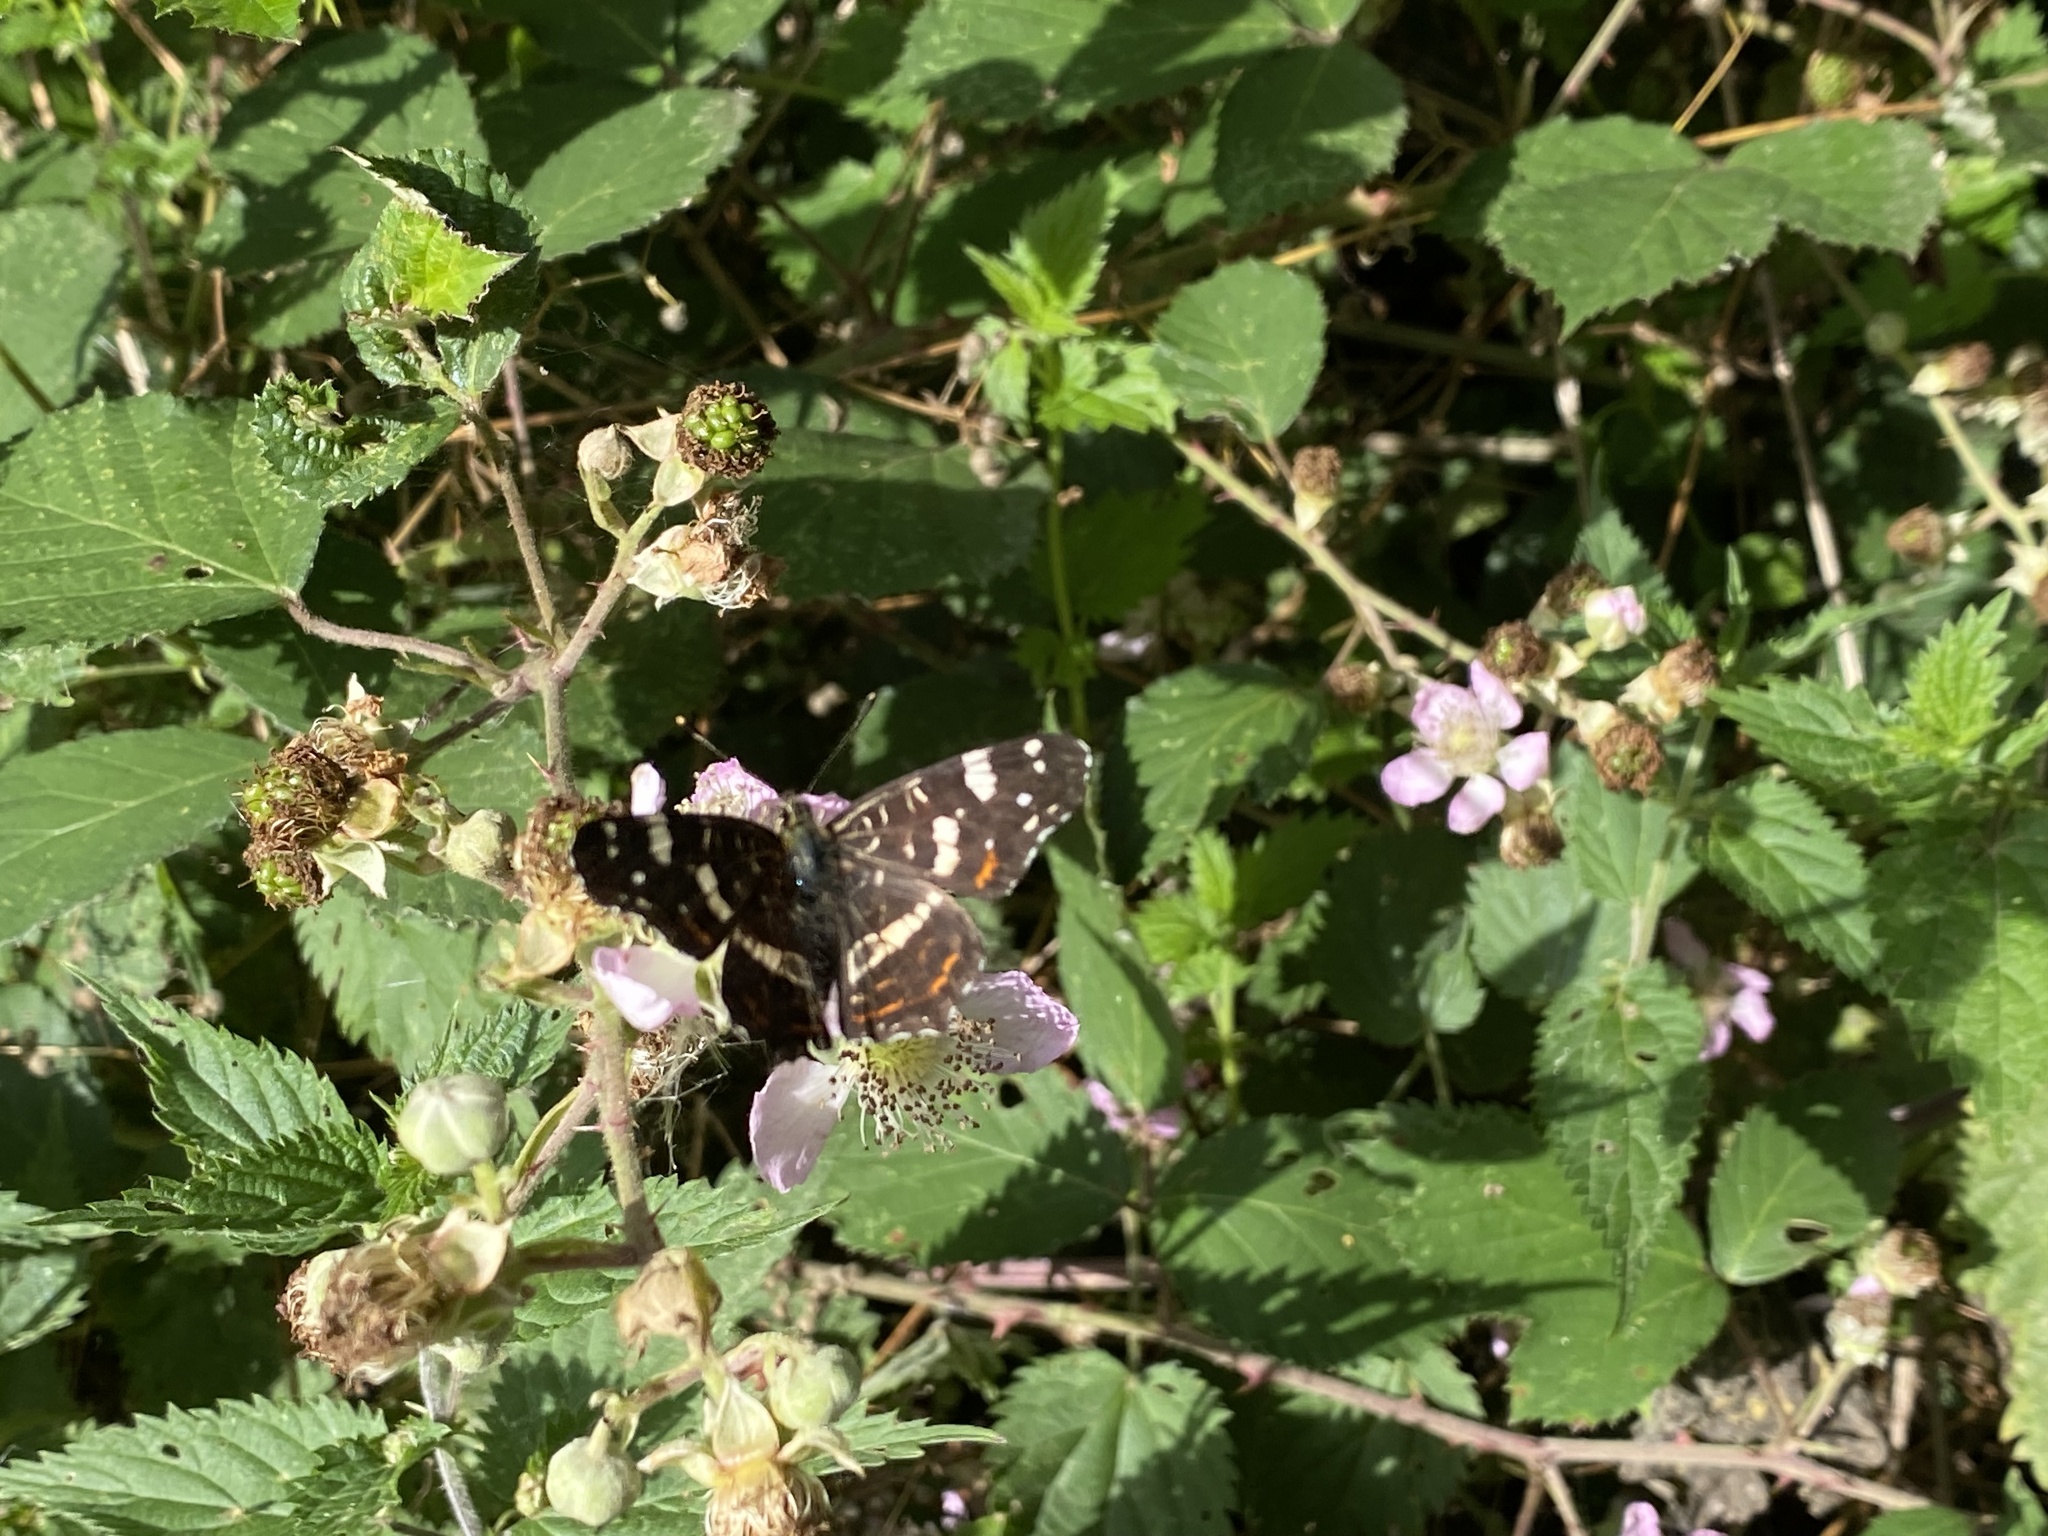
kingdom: Animalia
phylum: Arthropoda
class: Insecta
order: Lepidoptera
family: Nymphalidae
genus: Araschnia
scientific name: Araschnia levana
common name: Map butterfly
